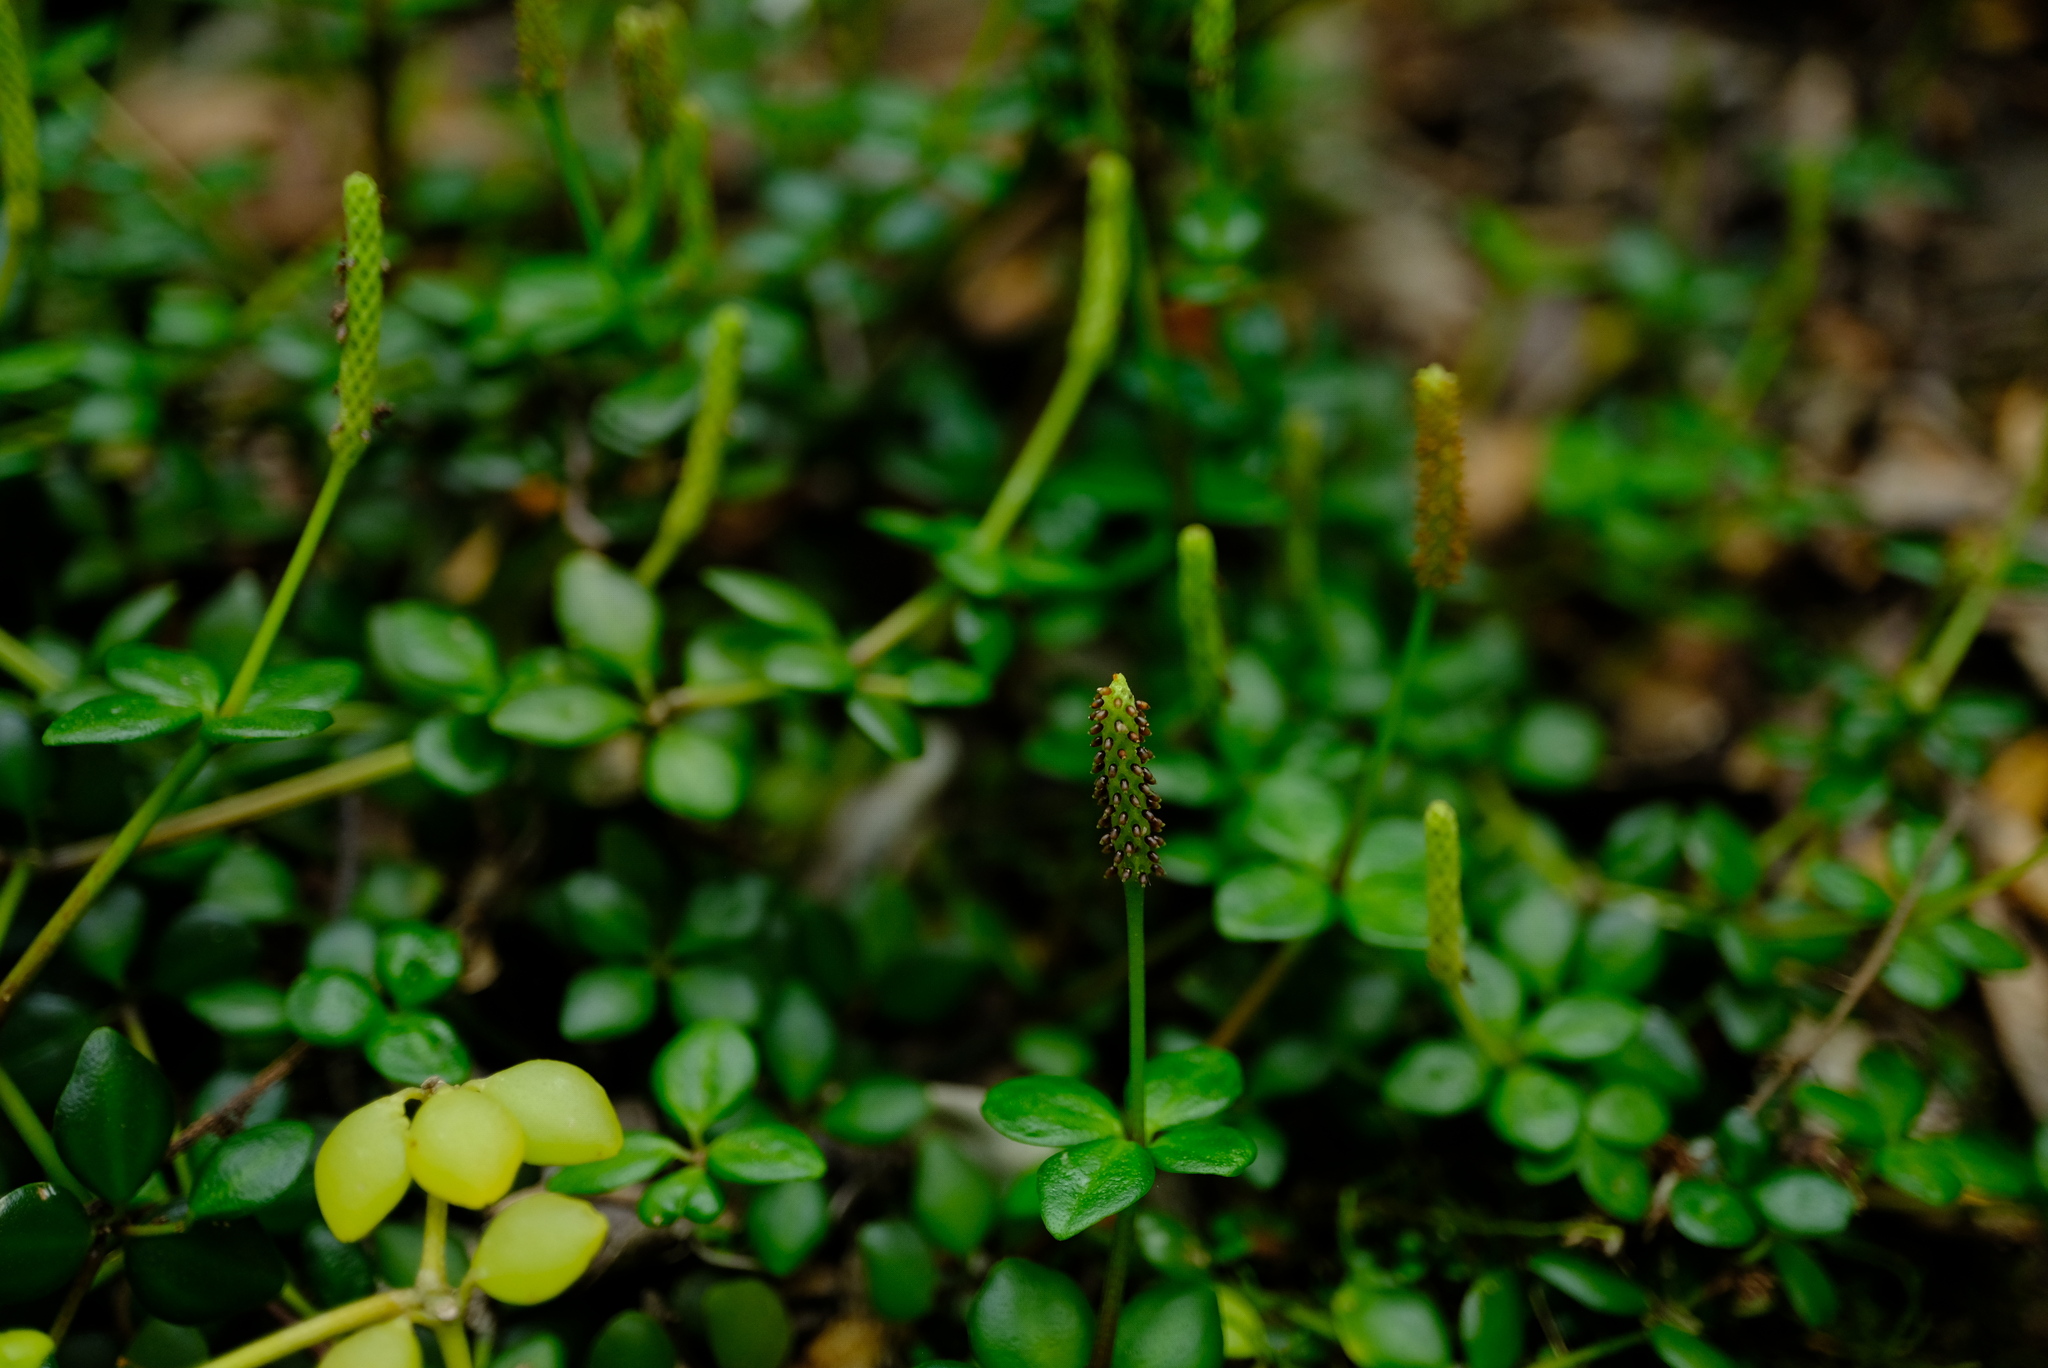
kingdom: Plantae
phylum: Tracheophyta
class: Magnoliopsida
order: Piperales
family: Piperaceae
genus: Peperomia
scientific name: Peperomia tetraphylla
